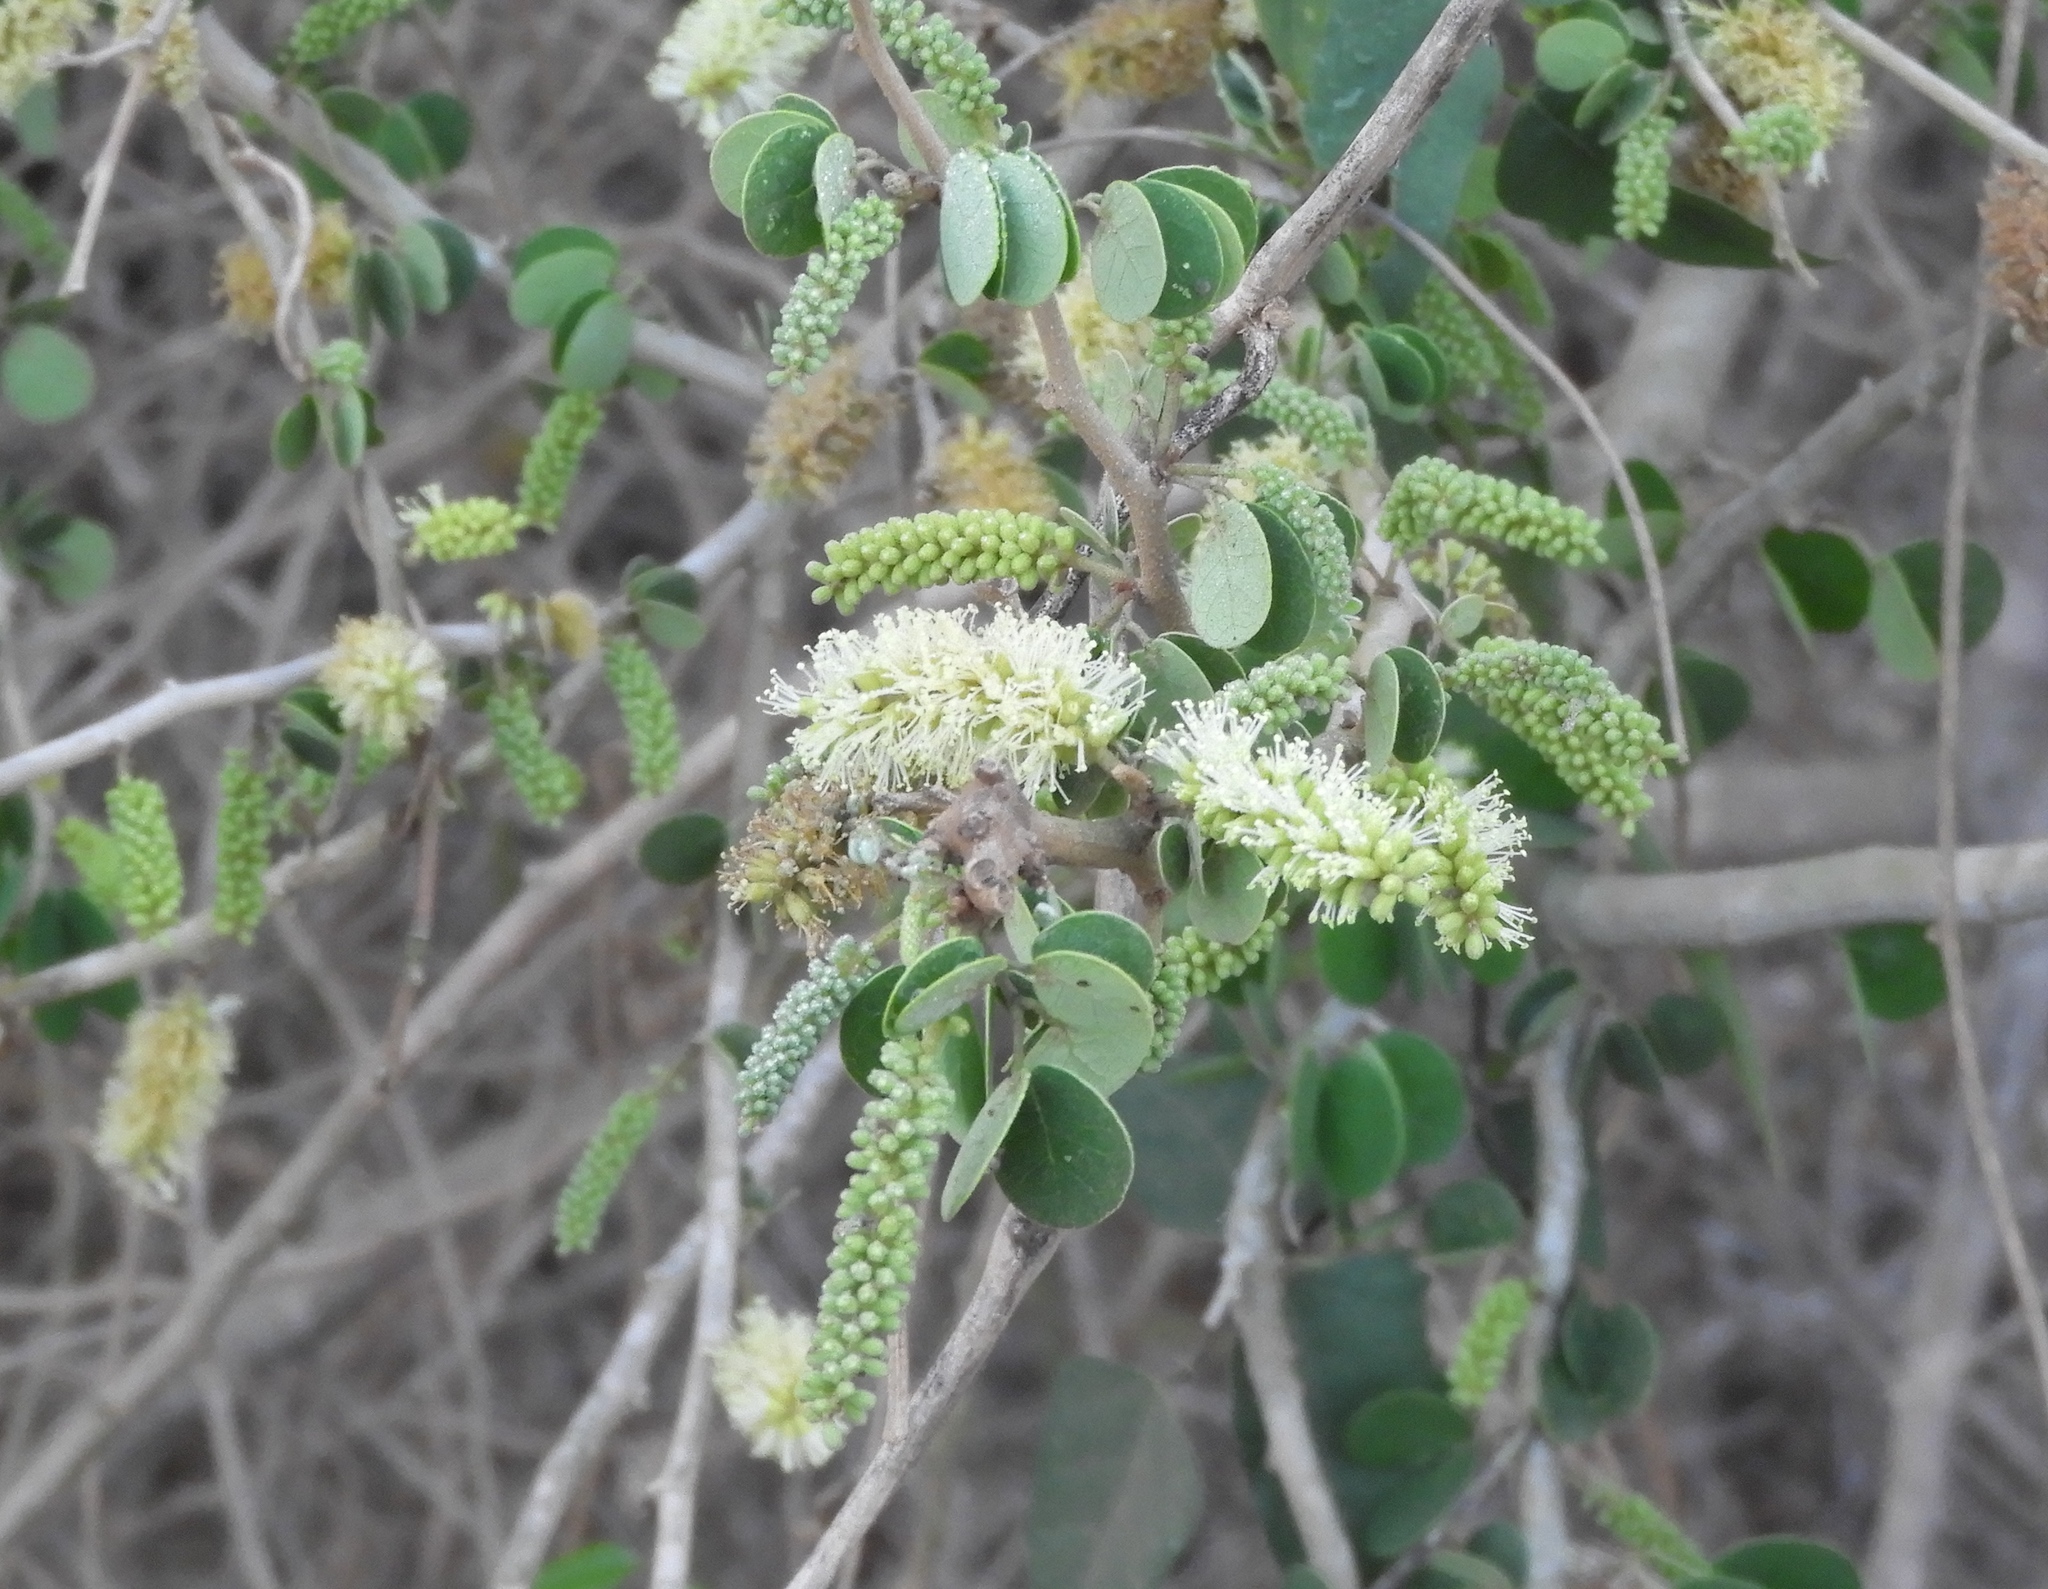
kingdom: Plantae
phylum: Tracheophyta
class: Magnoliopsida
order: Fabales
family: Fabaceae
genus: Microlobius
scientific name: Microlobius foetidus
